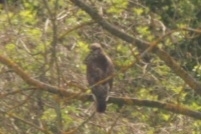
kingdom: Animalia
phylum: Chordata
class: Aves
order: Accipitriformes
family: Accipitridae
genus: Buteo
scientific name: Buteo buteo
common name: Common buzzard
